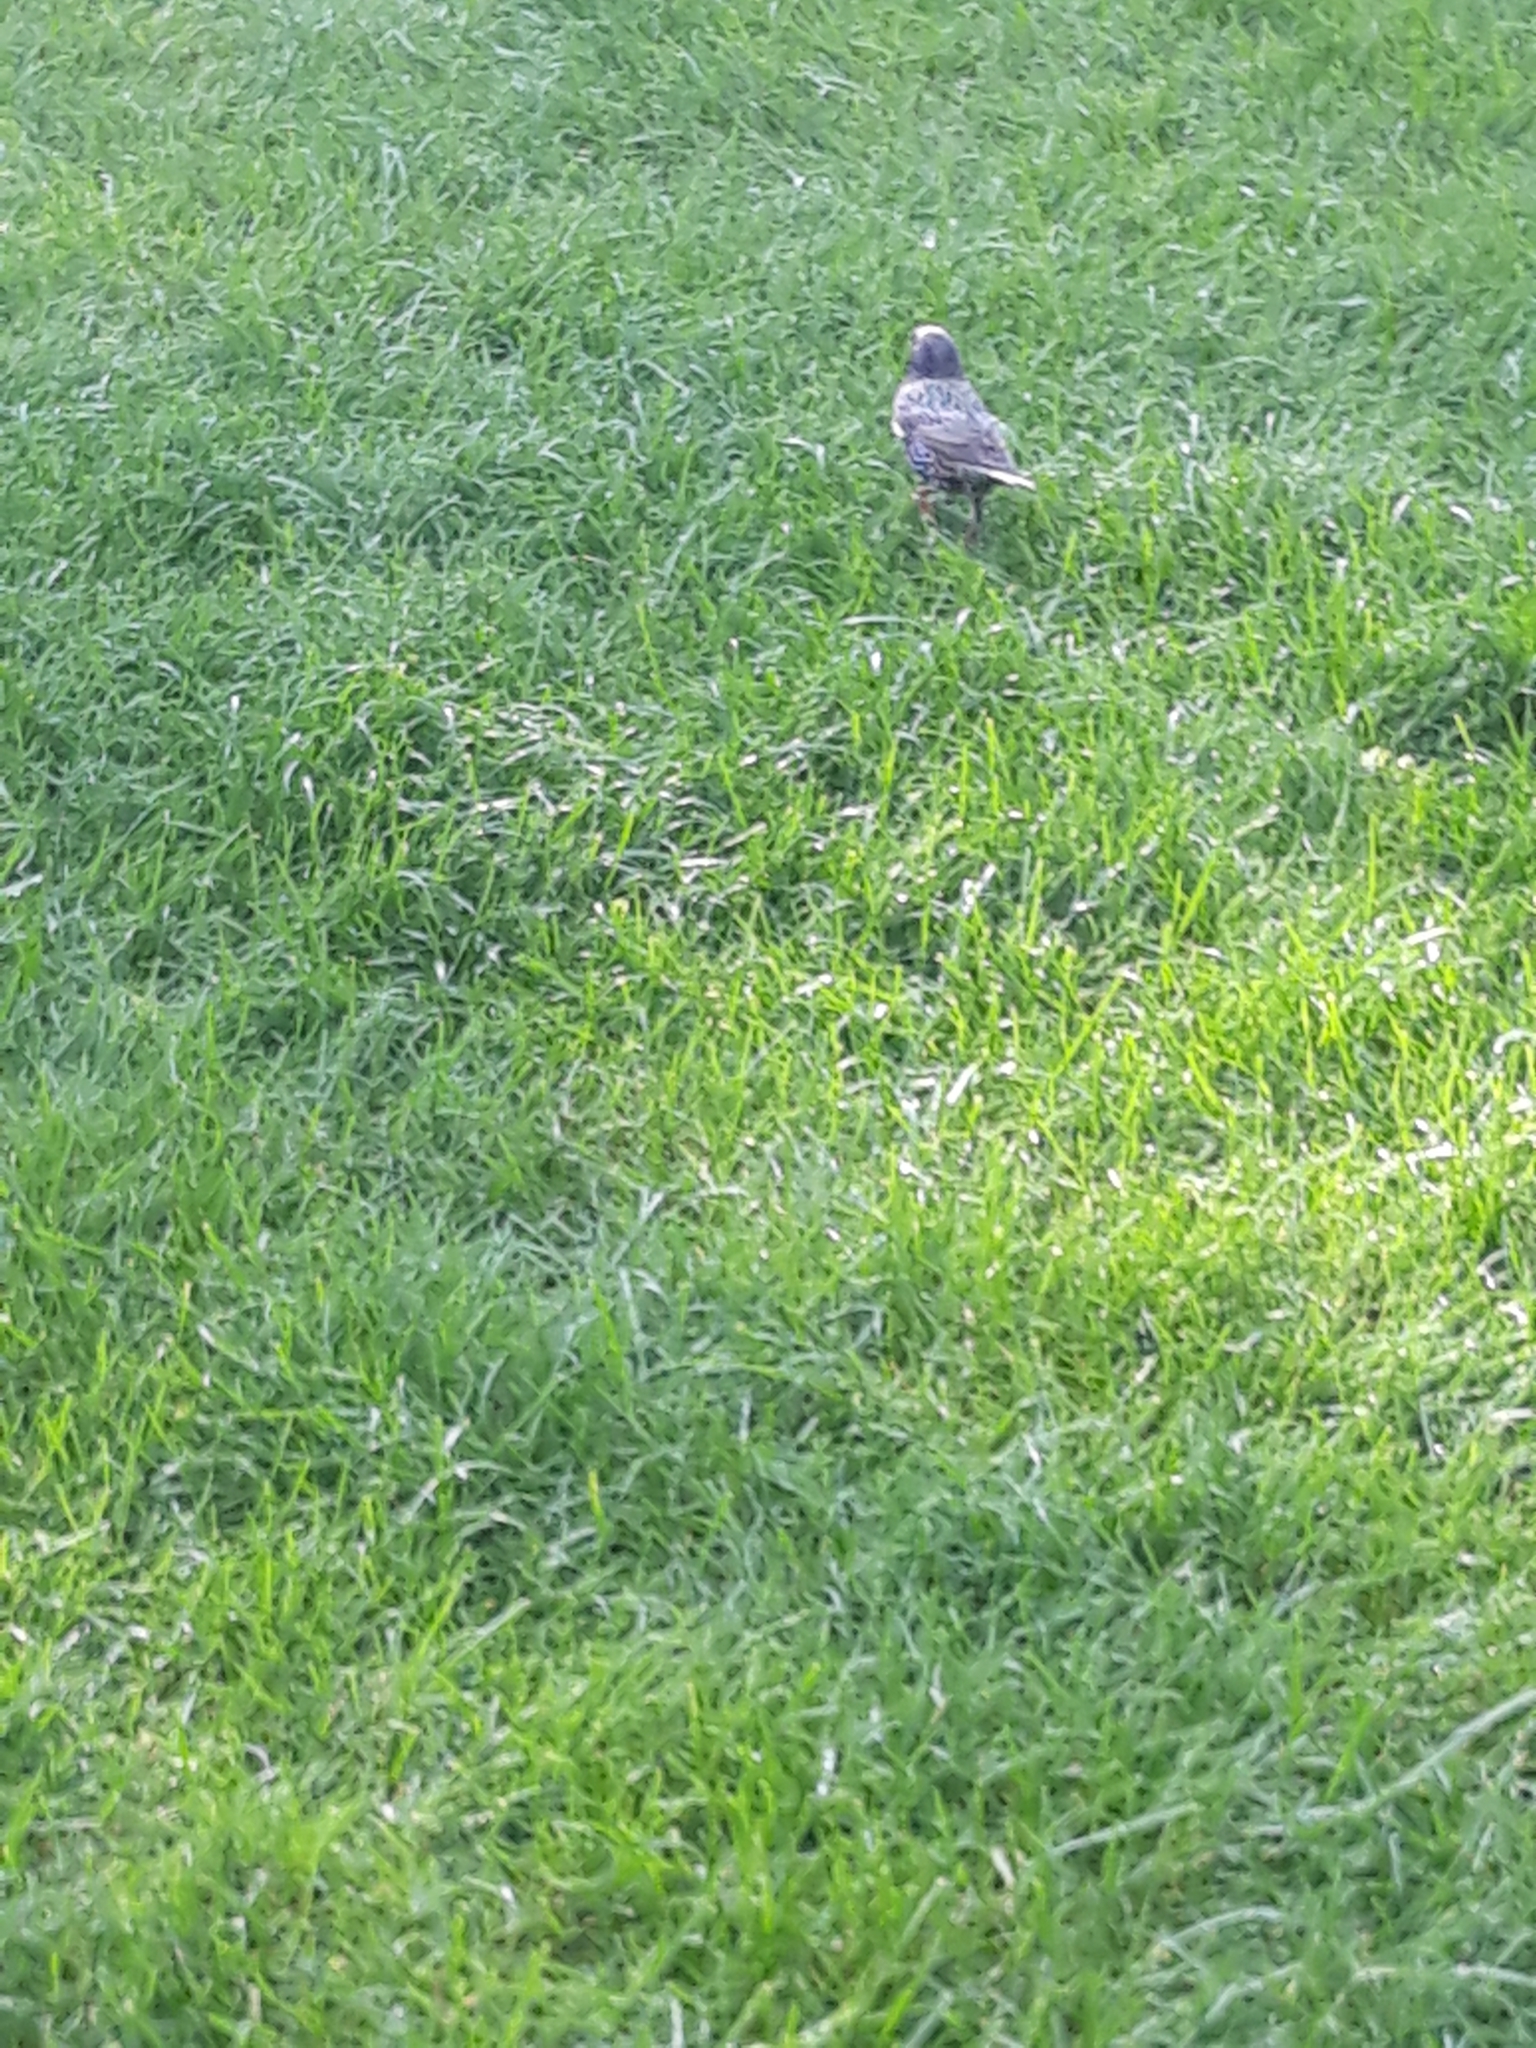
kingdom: Animalia
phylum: Chordata
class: Aves
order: Passeriformes
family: Sturnidae
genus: Sturnus
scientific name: Sturnus vulgaris
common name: Common starling
